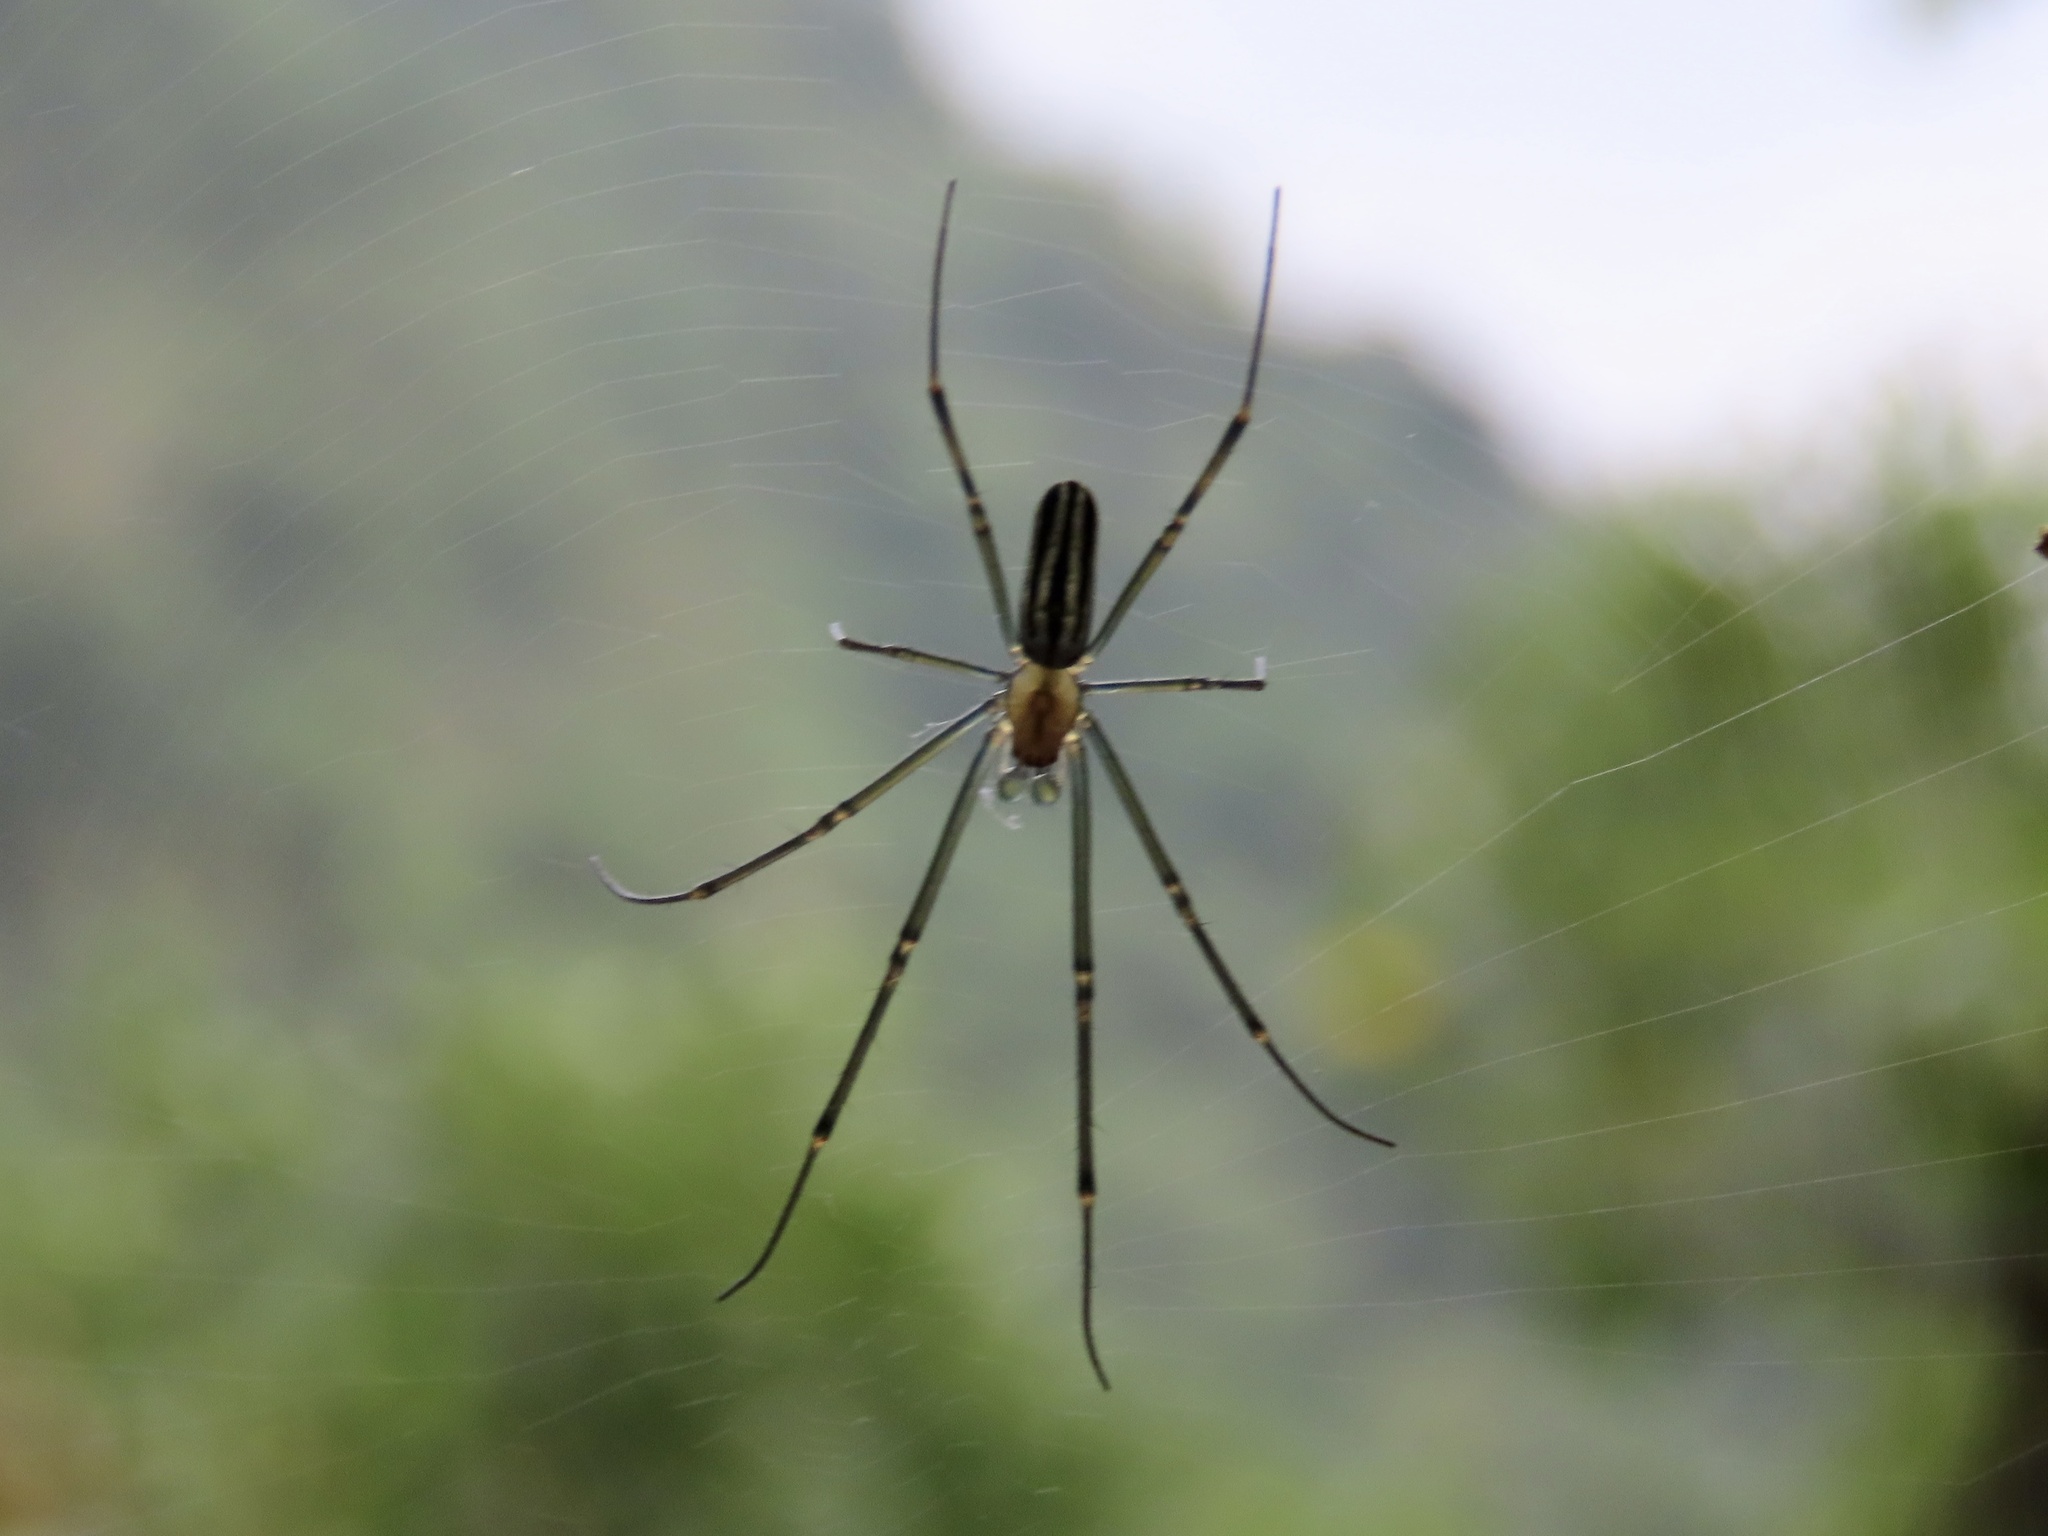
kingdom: Animalia
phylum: Arthropoda
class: Arachnida
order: Araneae
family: Araneidae
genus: Nephila
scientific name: Nephila pilipes
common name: Giant golden orb weaver
